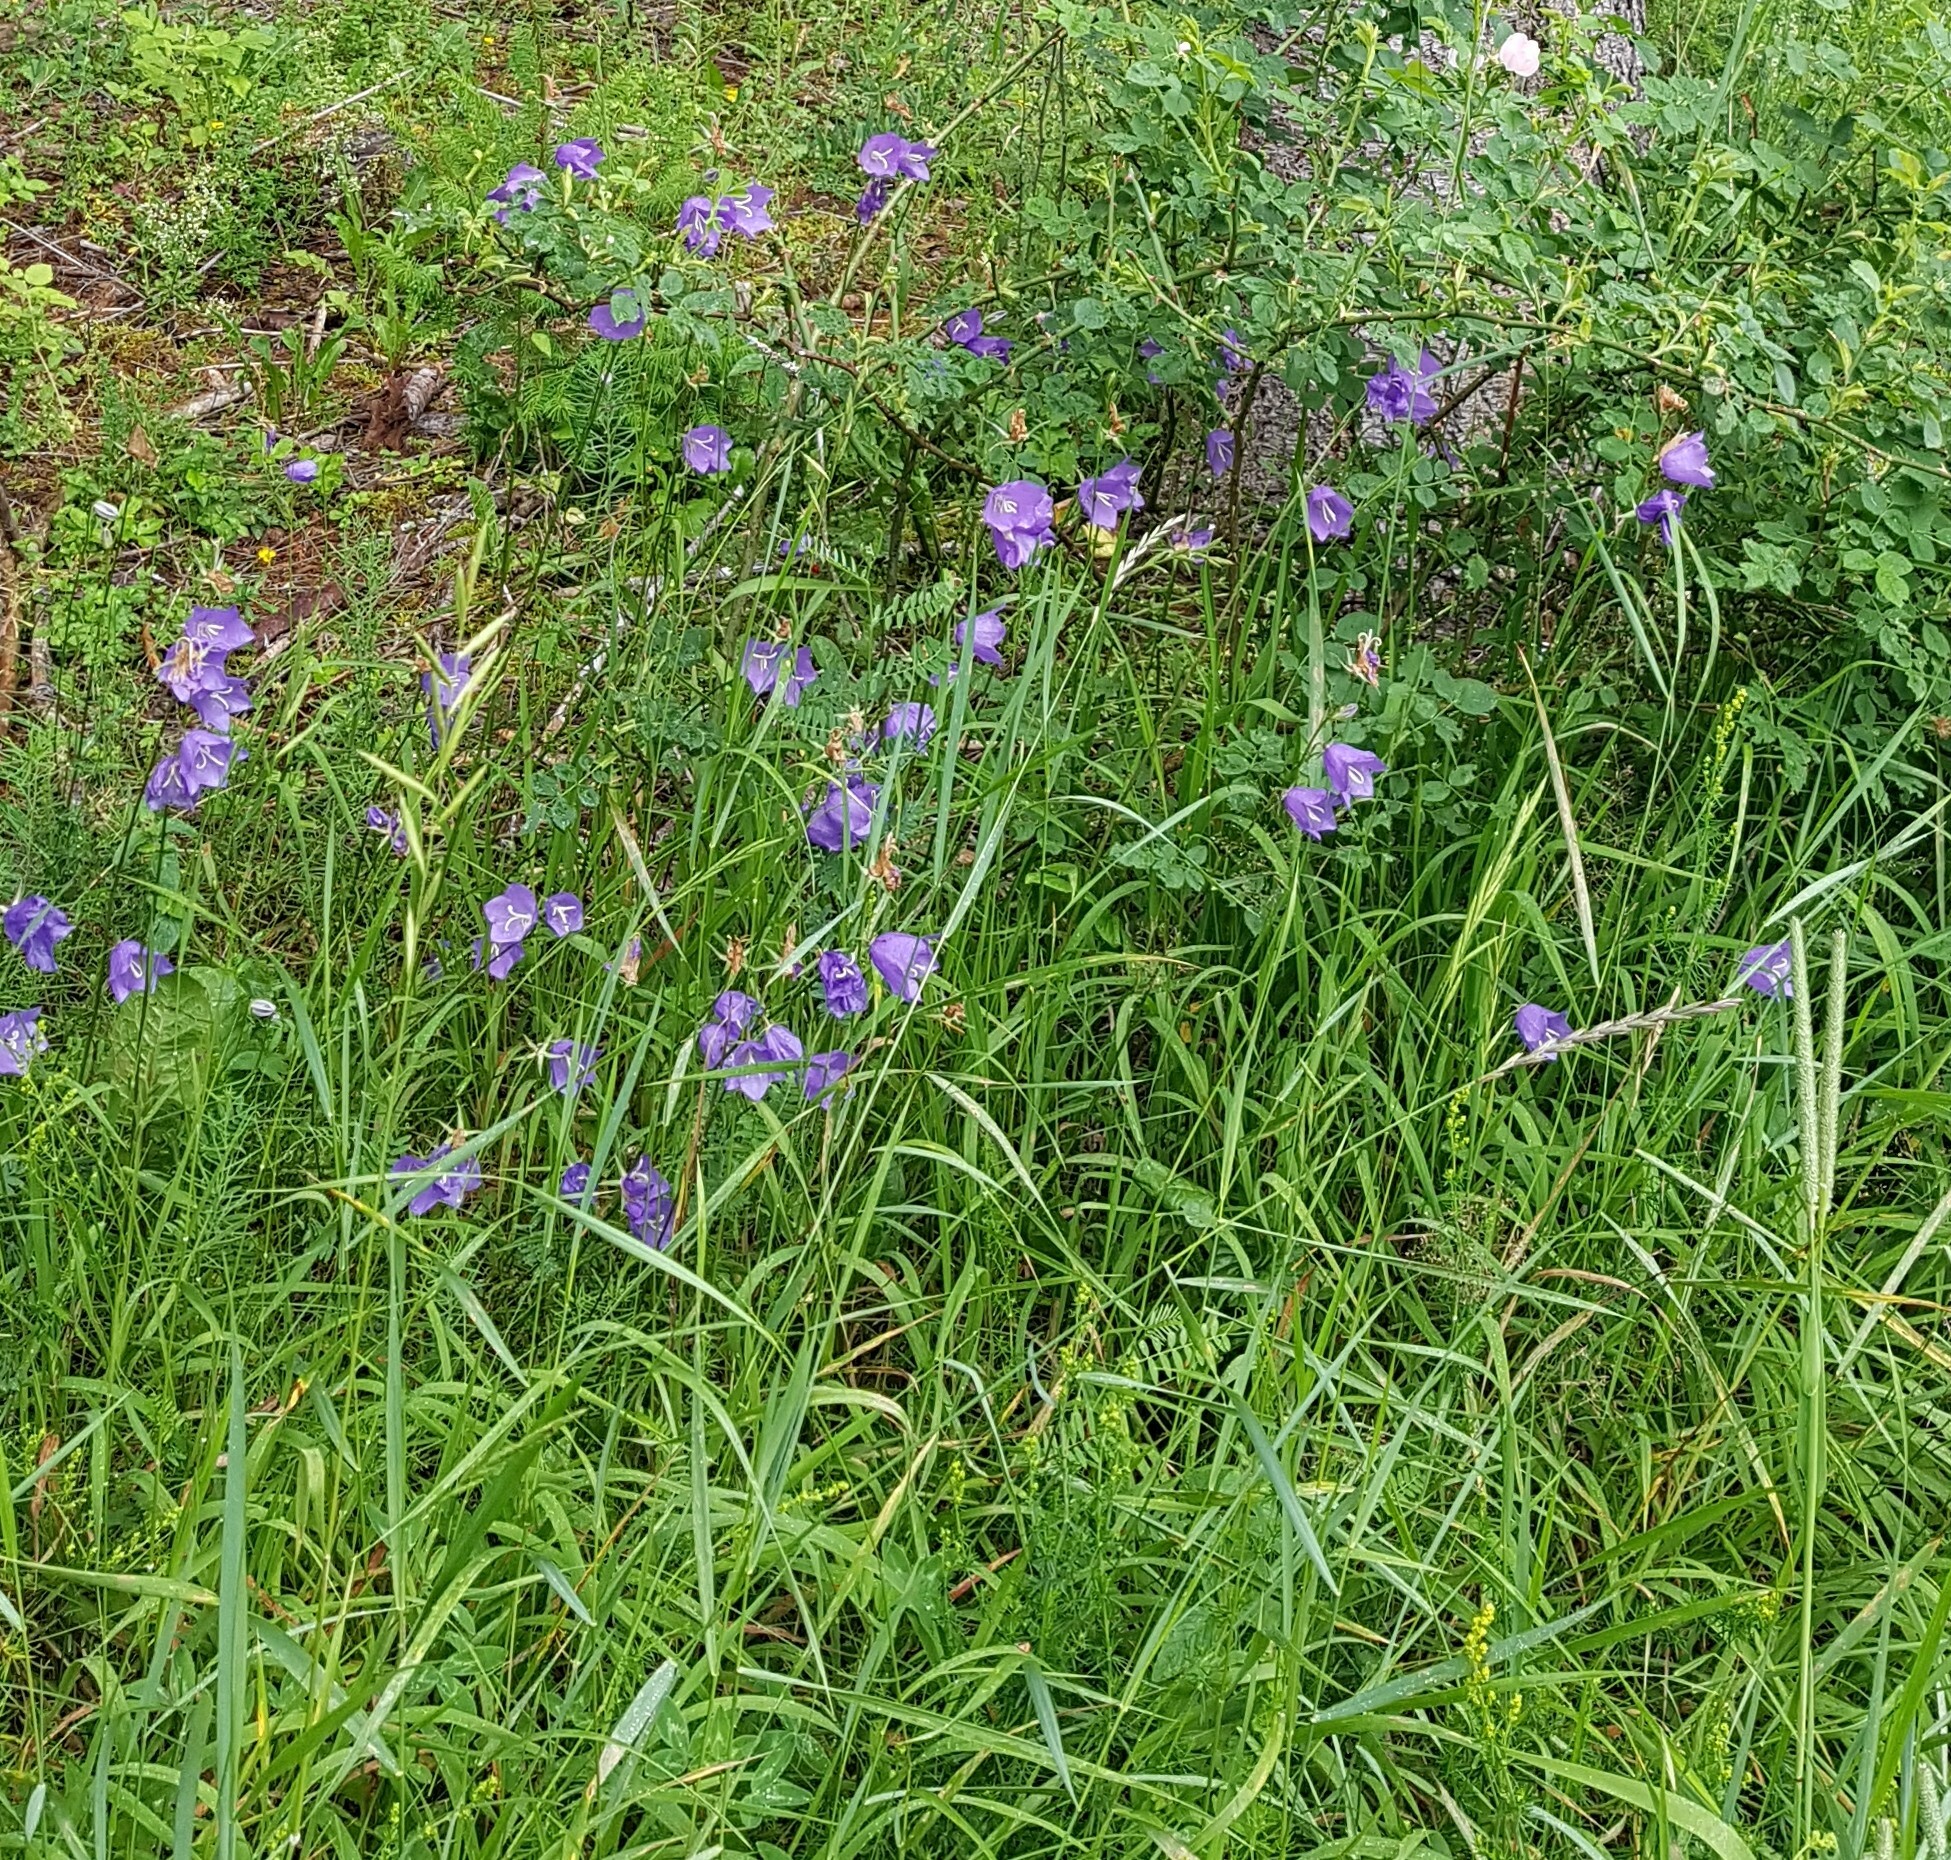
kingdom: Plantae
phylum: Tracheophyta
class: Magnoliopsida
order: Asterales
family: Campanulaceae
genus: Campanula
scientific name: Campanula persicifolia
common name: Peach-leaved bellflower
